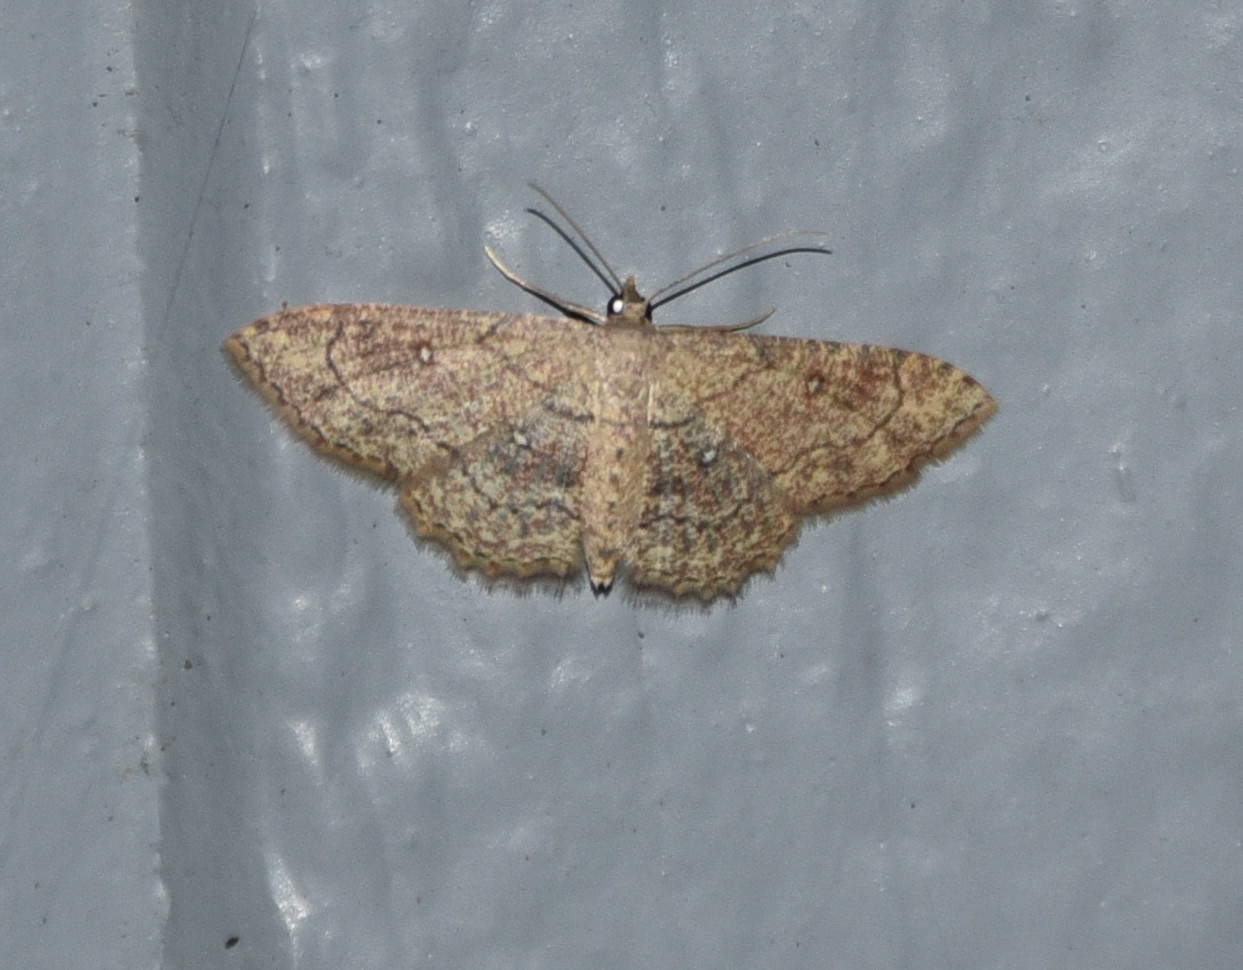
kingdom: Animalia
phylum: Arthropoda
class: Insecta
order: Lepidoptera
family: Geometridae
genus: Cyclophora
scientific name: Cyclophora nanaria
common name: Cankerworm
